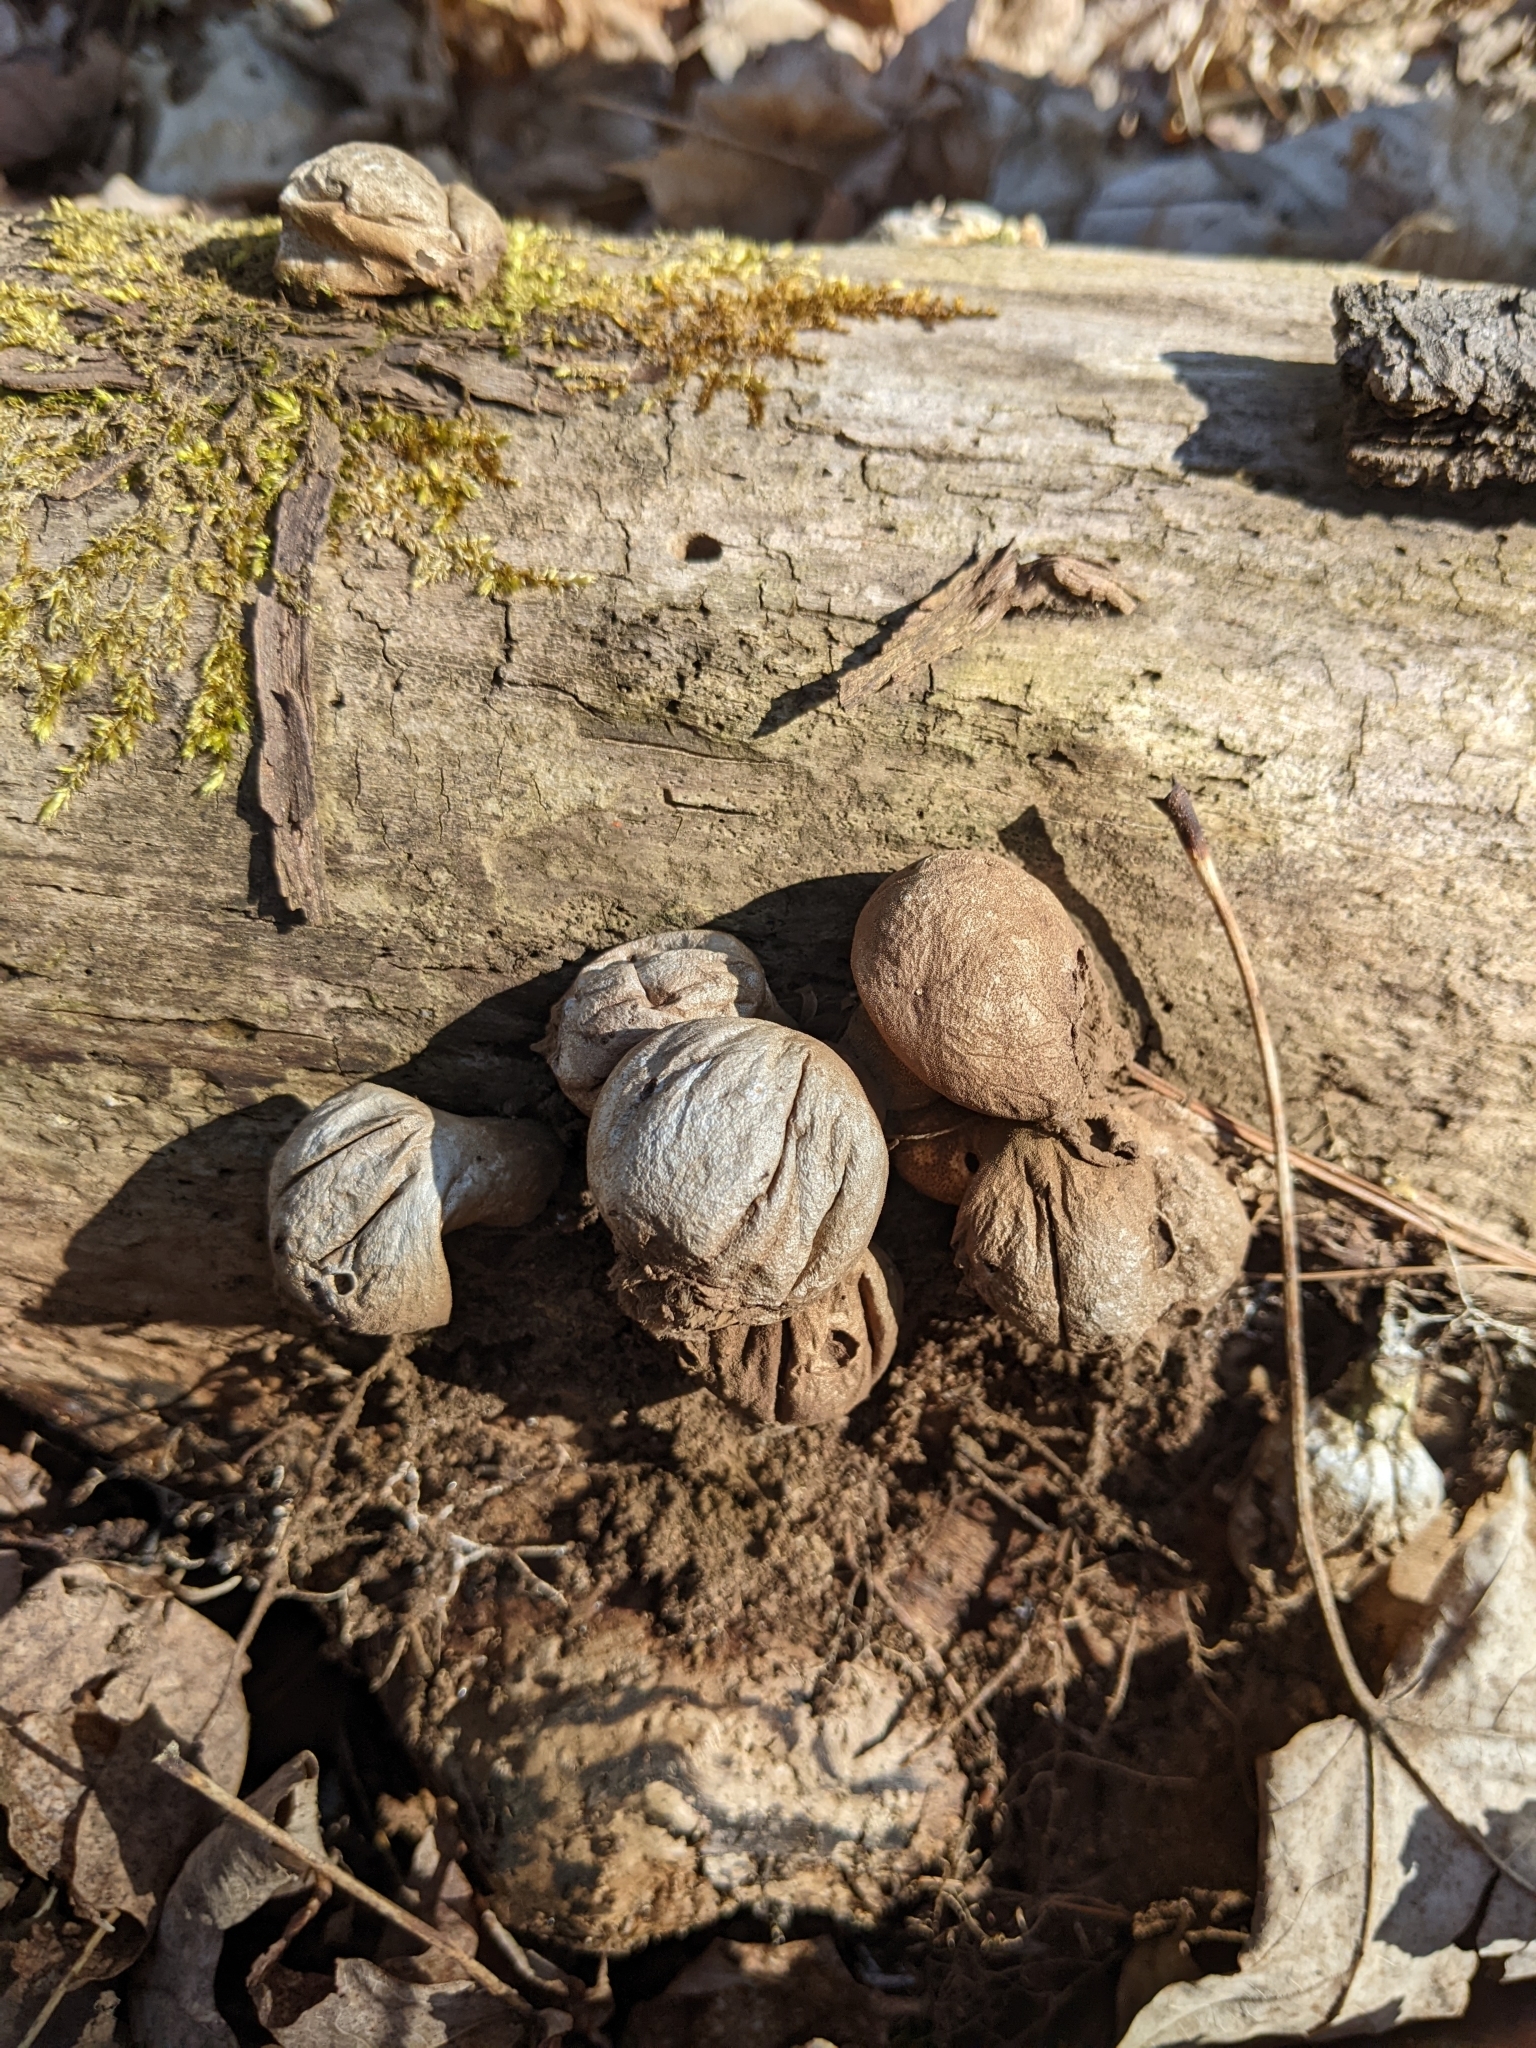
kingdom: Fungi
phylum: Basidiomycota
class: Agaricomycetes
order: Agaricales
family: Lycoperdaceae
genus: Apioperdon
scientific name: Apioperdon pyriforme
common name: Pear-shaped puffball
